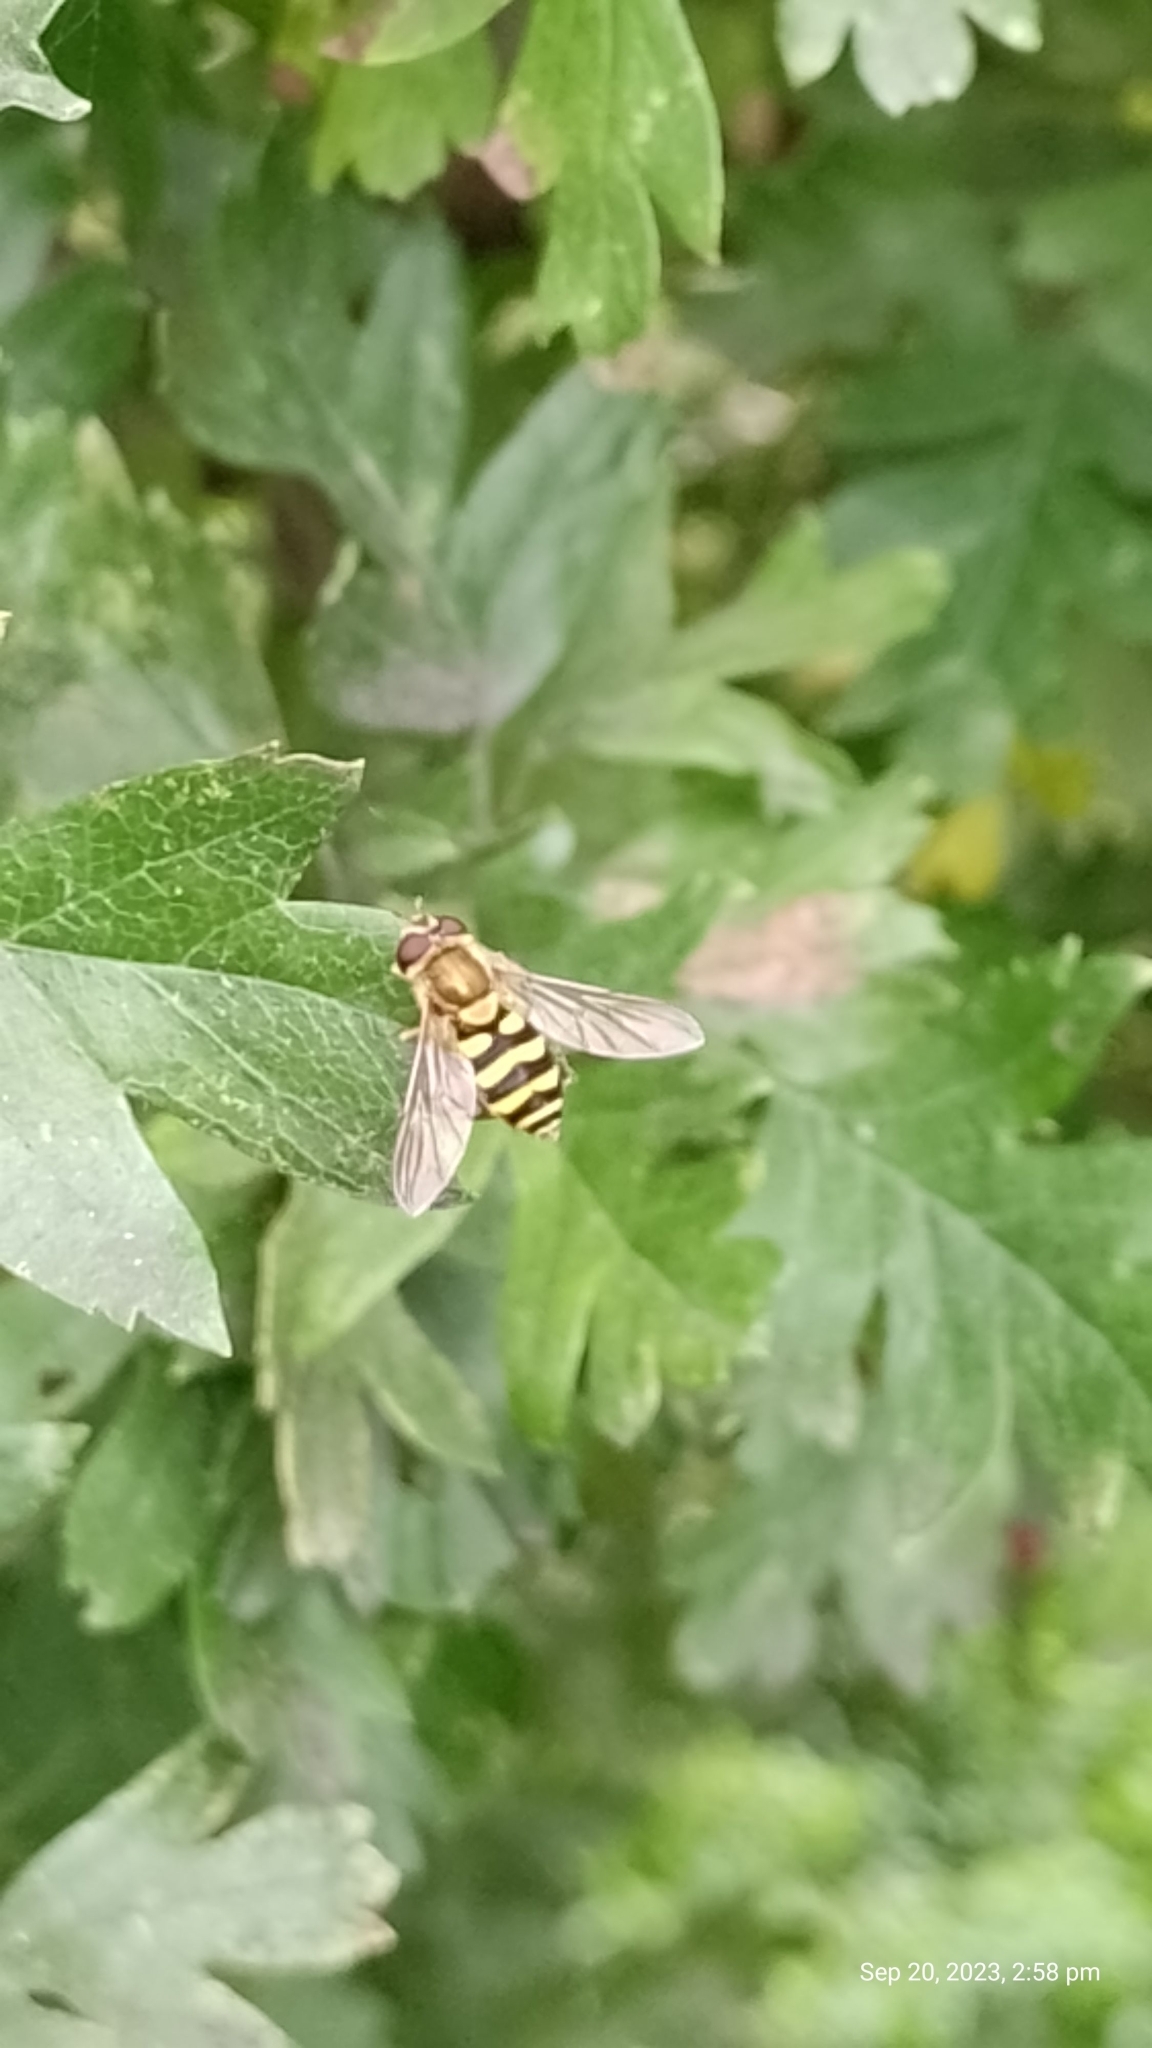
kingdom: Animalia
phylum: Arthropoda
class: Insecta
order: Diptera
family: Syrphidae
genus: Syrphus
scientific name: Syrphus
